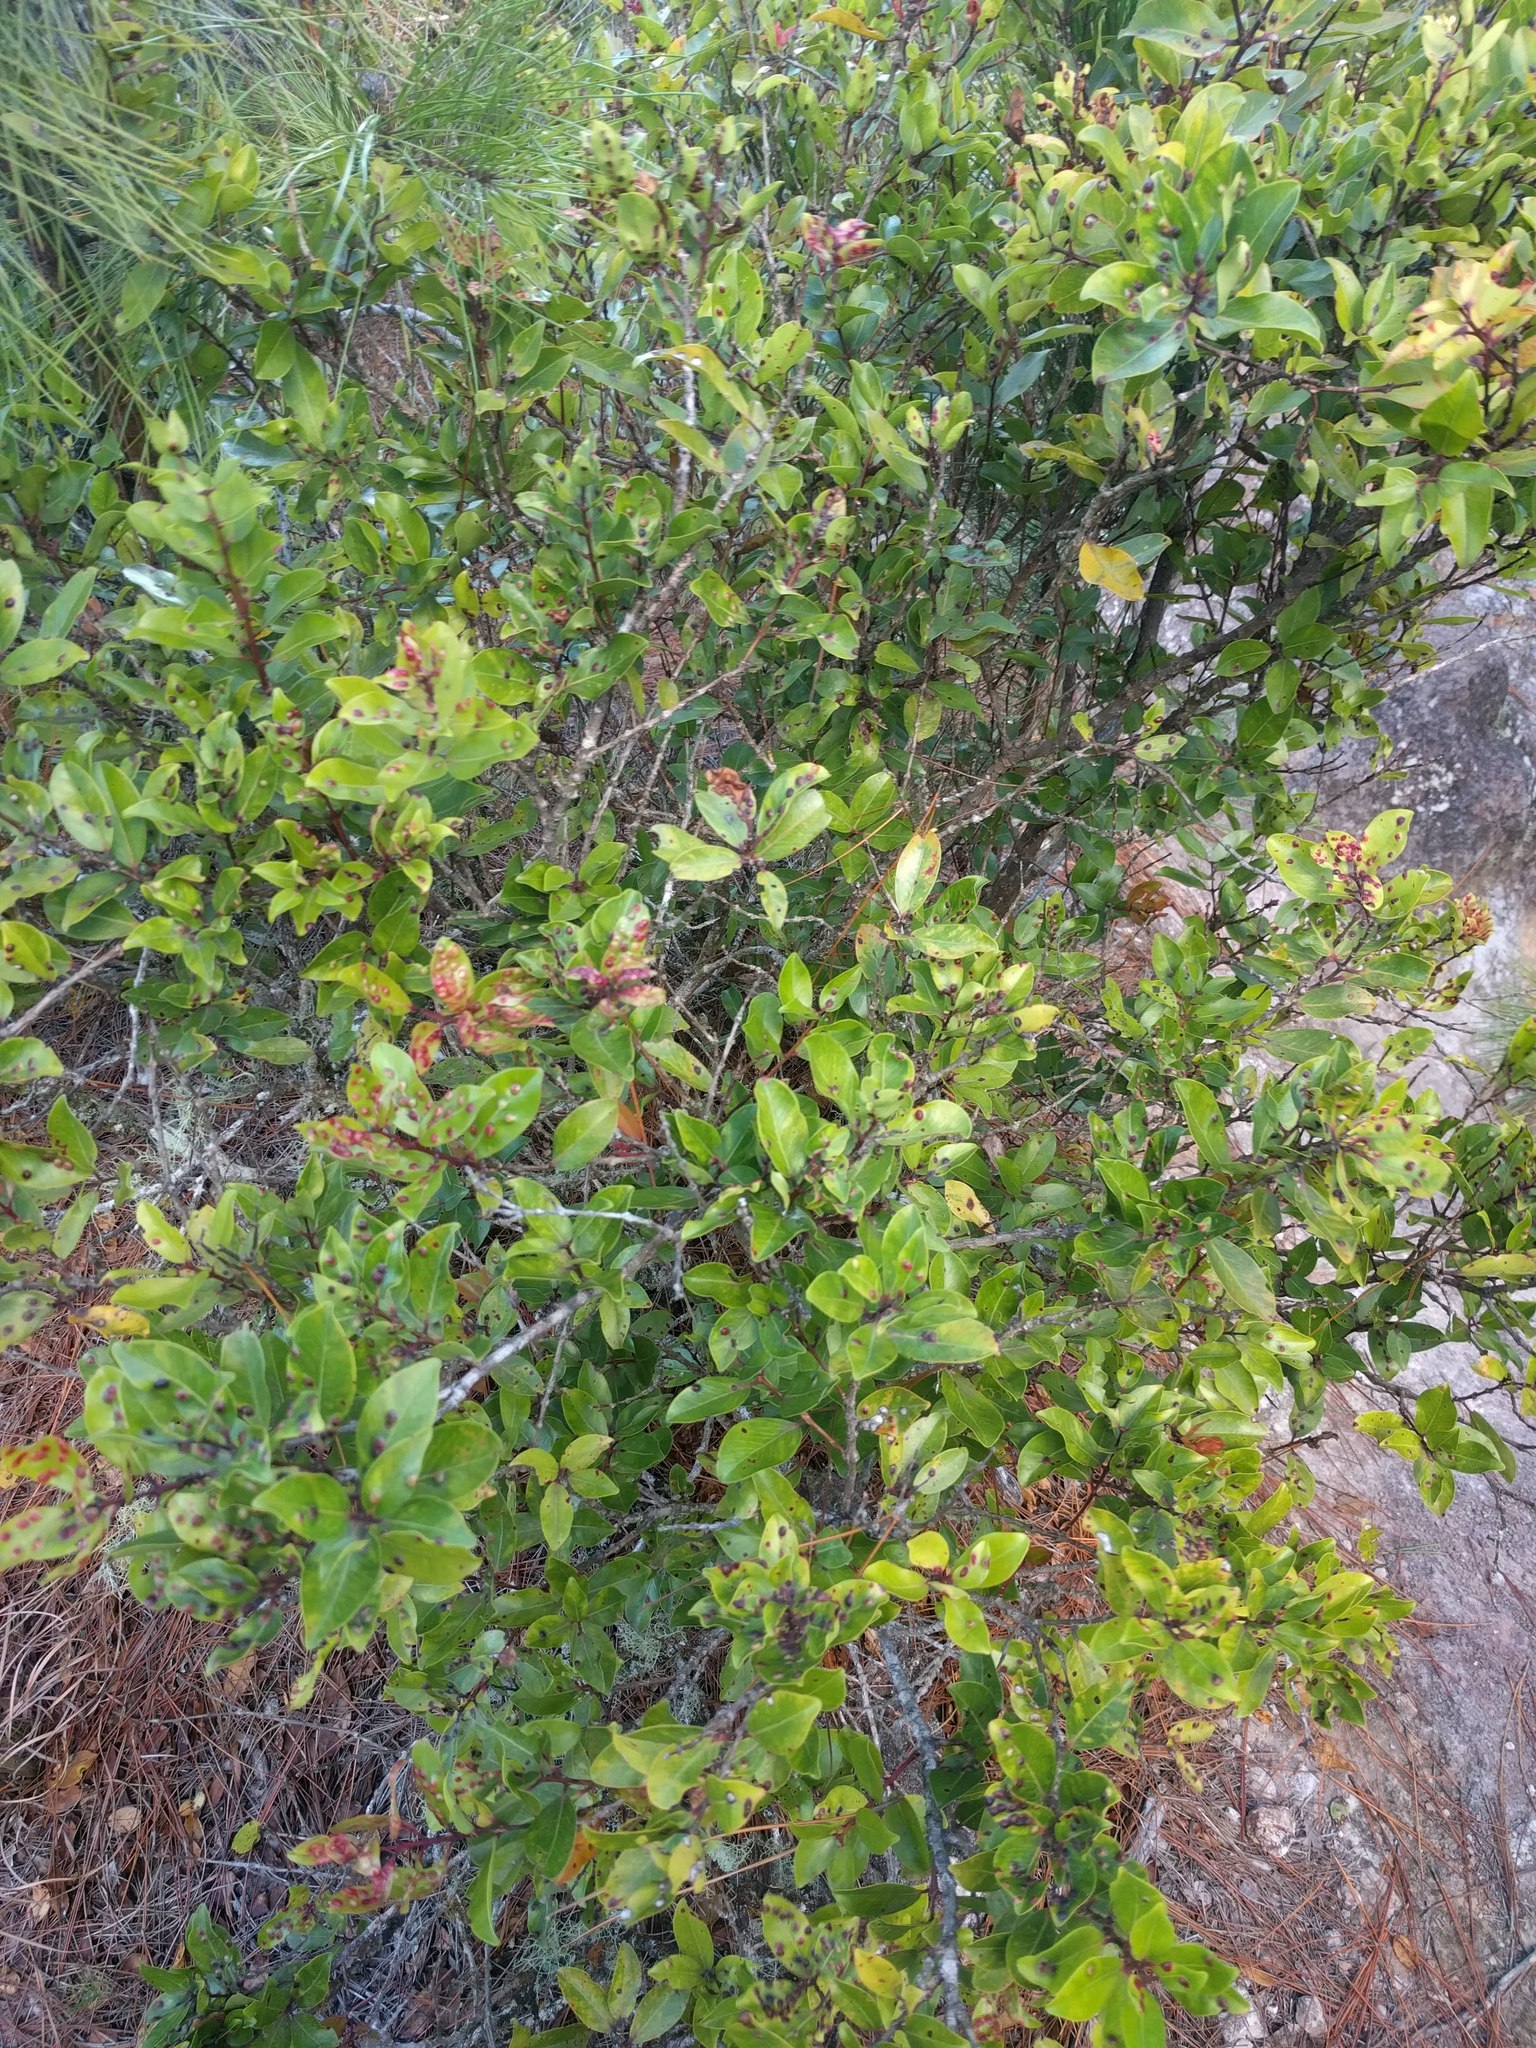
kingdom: Plantae
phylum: Tracheophyta
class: Magnoliopsida
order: Myrtales
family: Myrtaceae
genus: Metrosideros
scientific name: Metrosideros polymorpha
